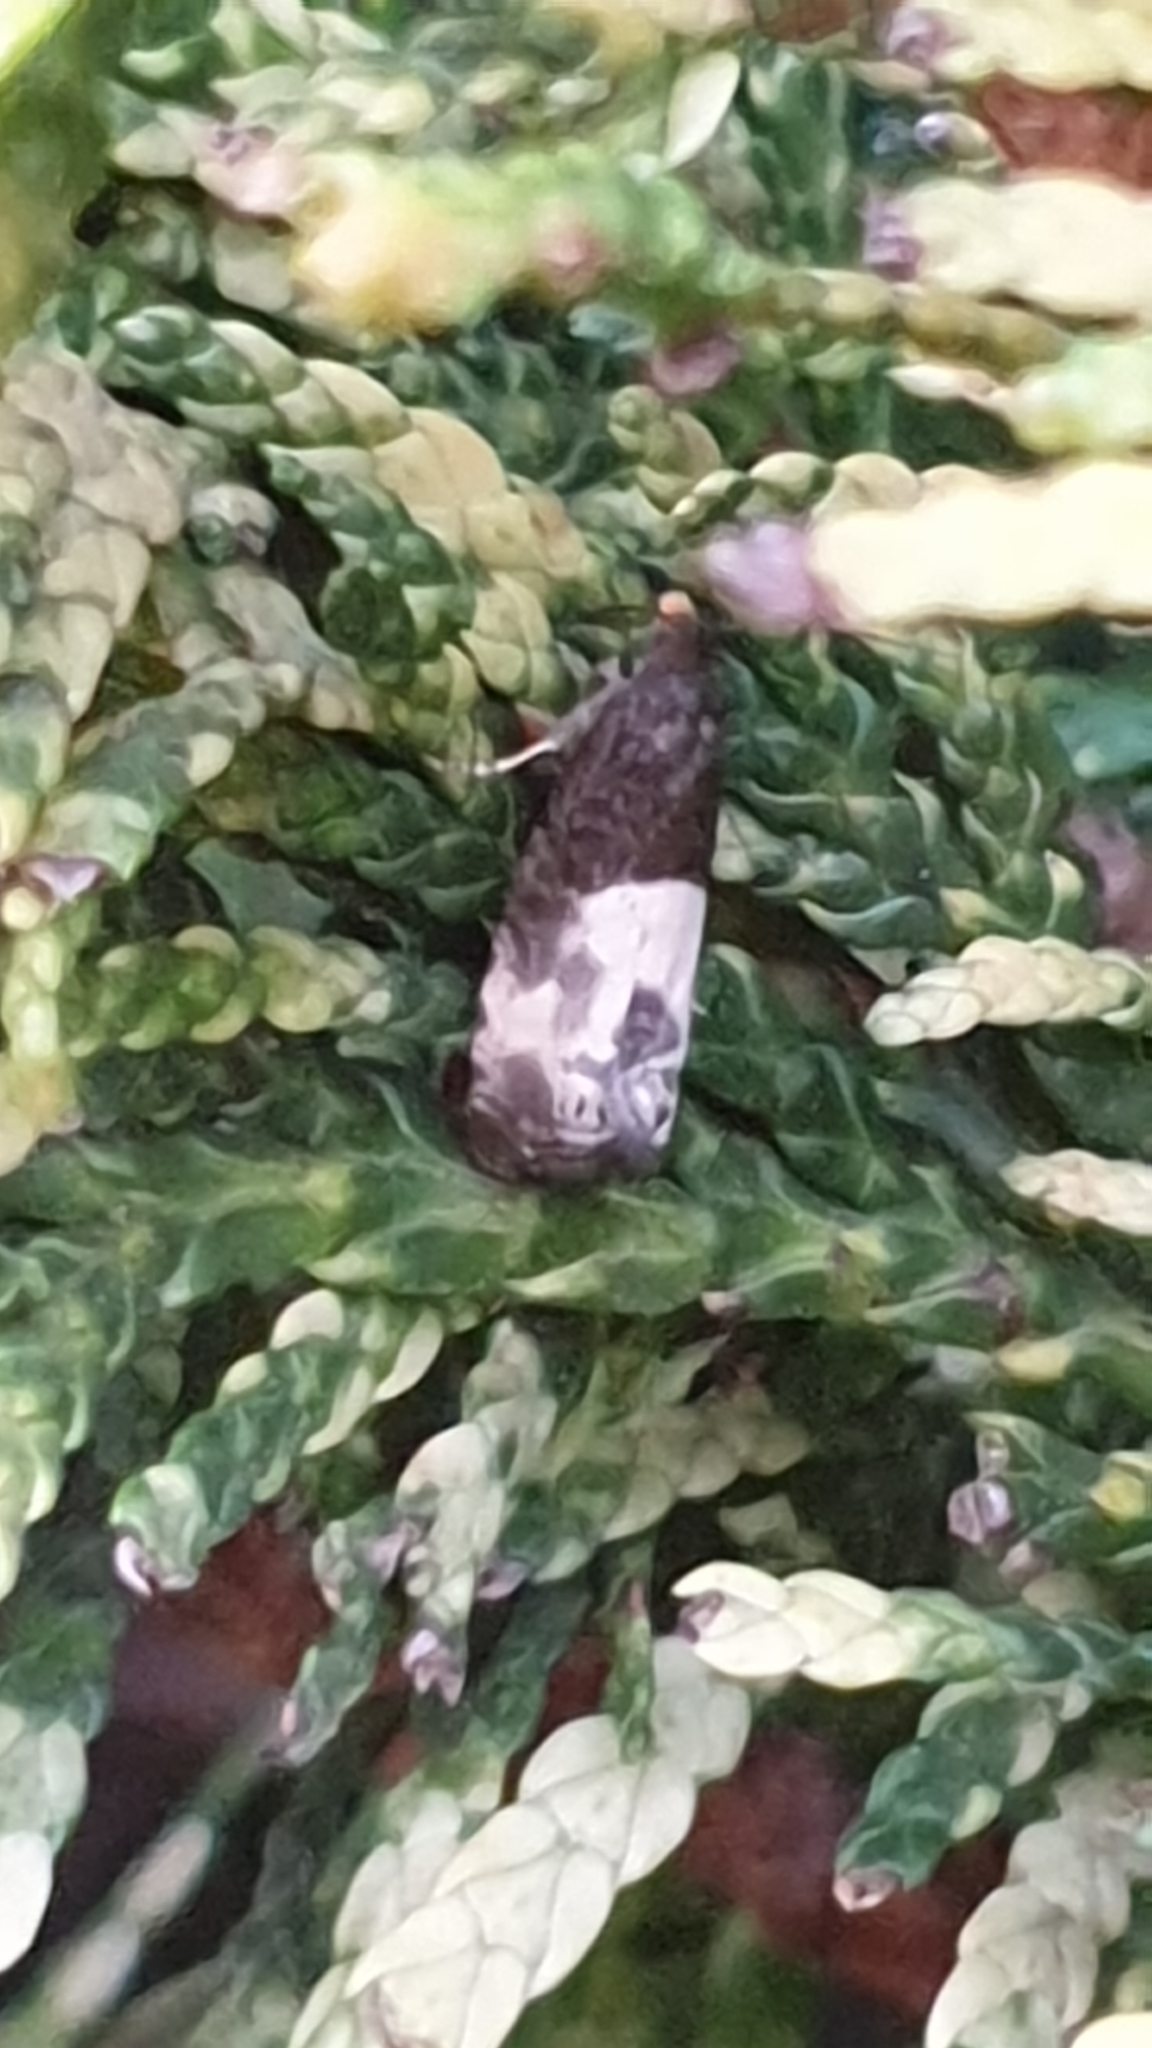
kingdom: Animalia
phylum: Arthropoda
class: Insecta
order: Lepidoptera
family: Tortricidae
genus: Notocelia
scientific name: Notocelia cynosbatella
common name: Yellow-faced bell moth
